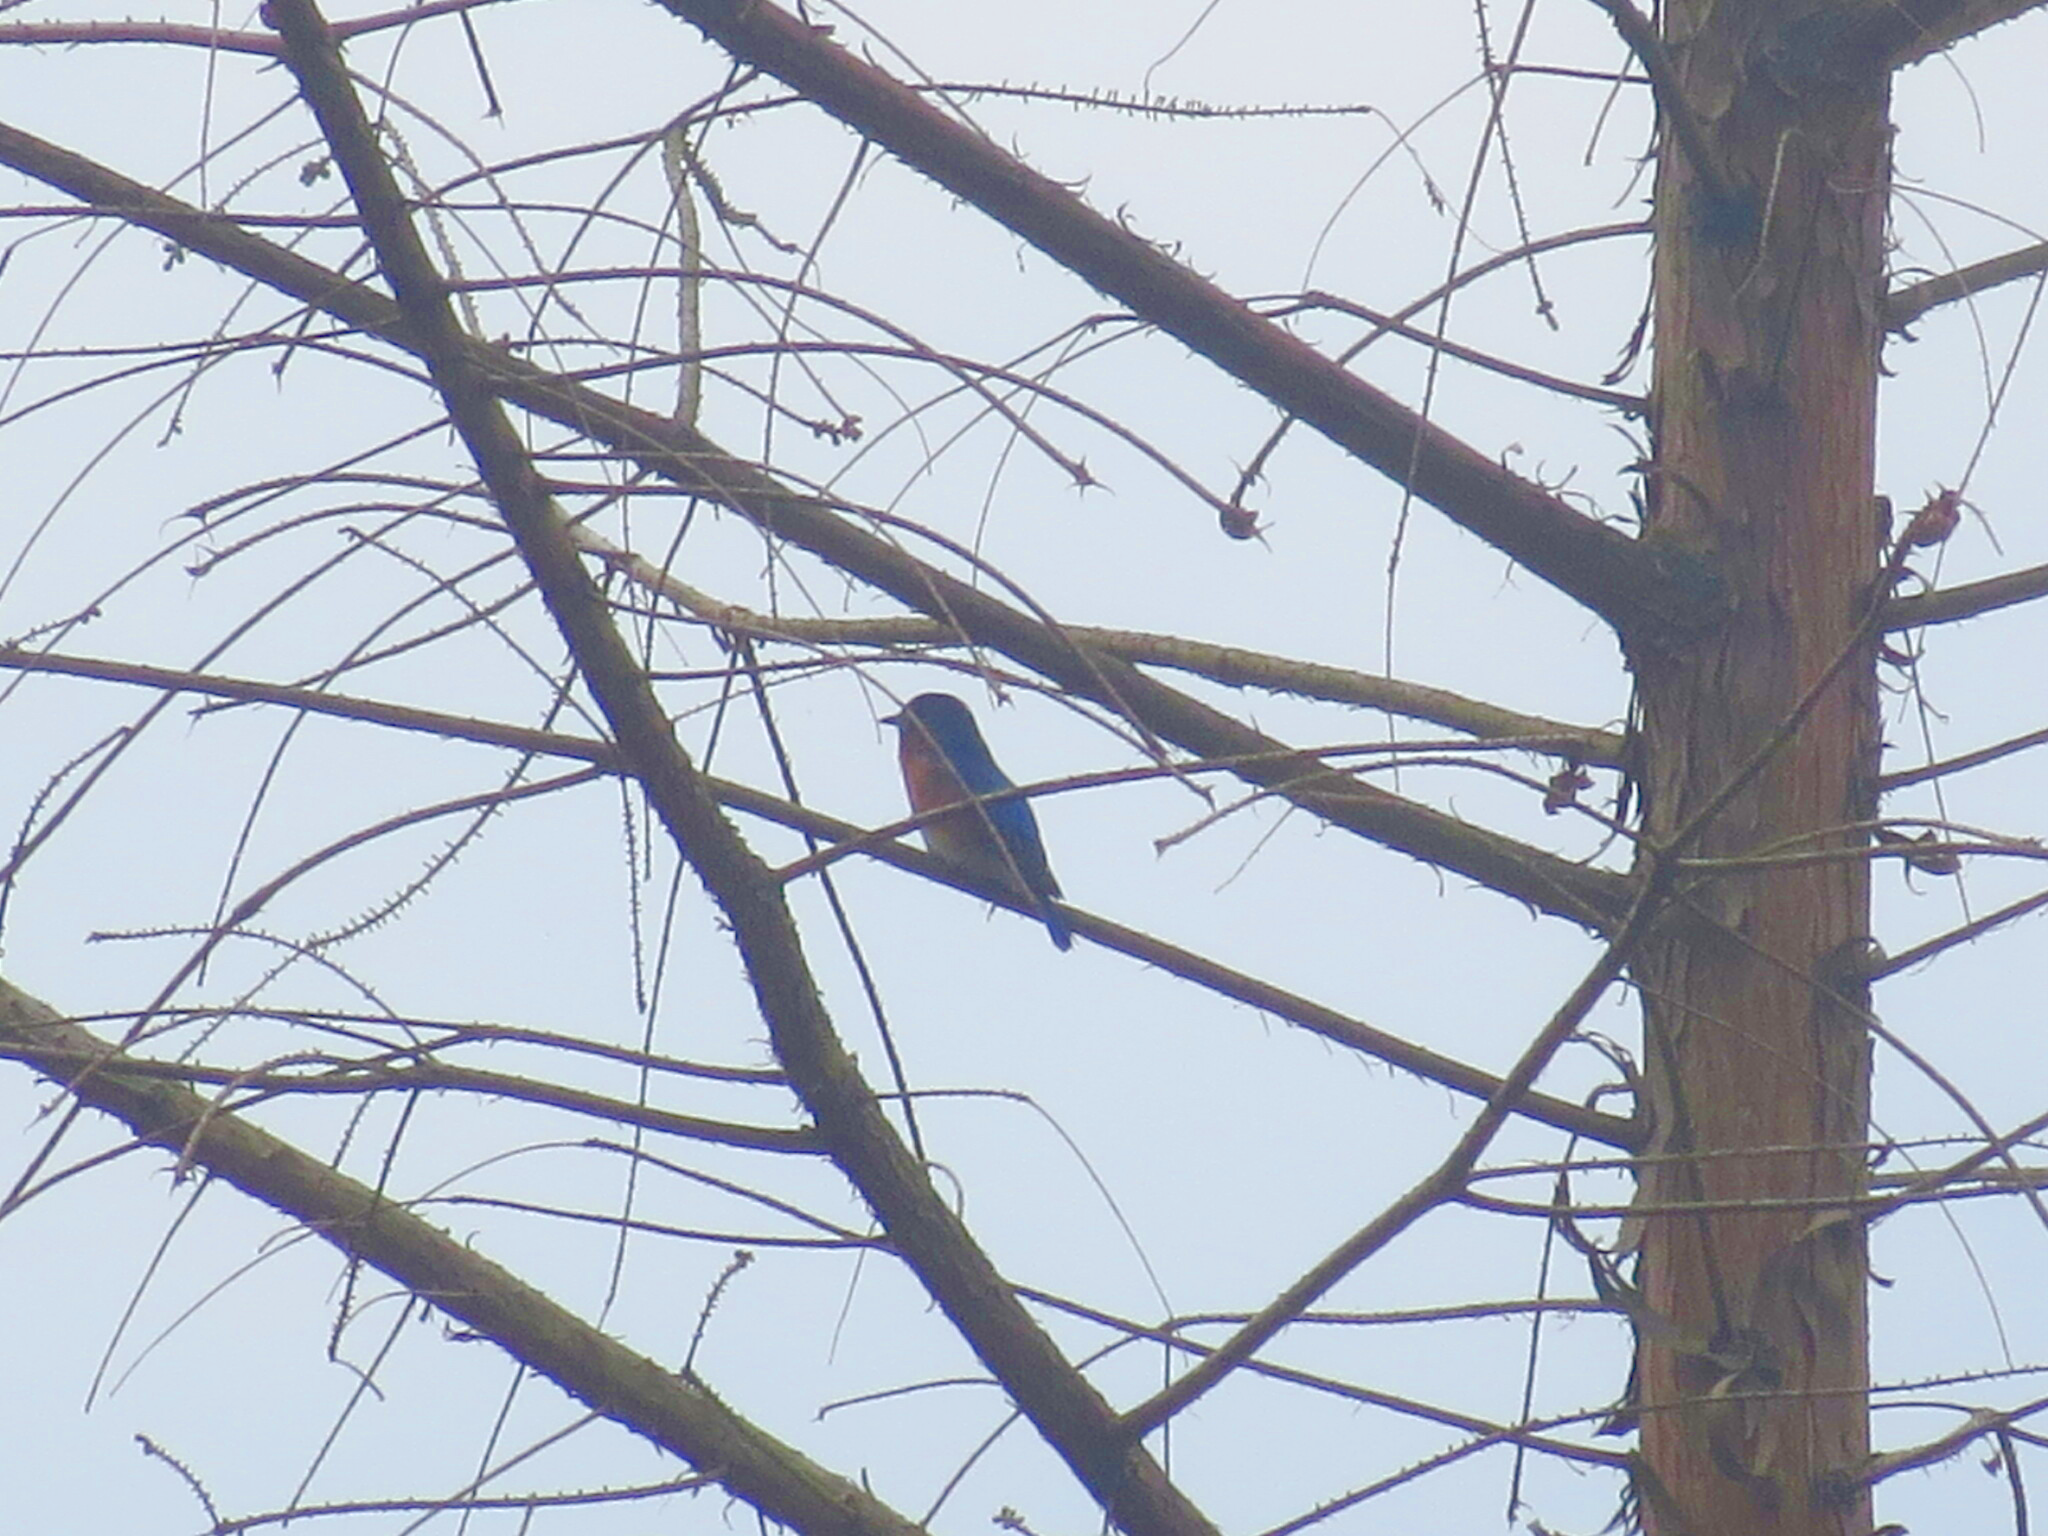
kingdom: Animalia
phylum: Chordata
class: Aves
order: Passeriformes
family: Turdidae
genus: Sialia
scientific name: Sialia sialis
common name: Eastern bluebird
